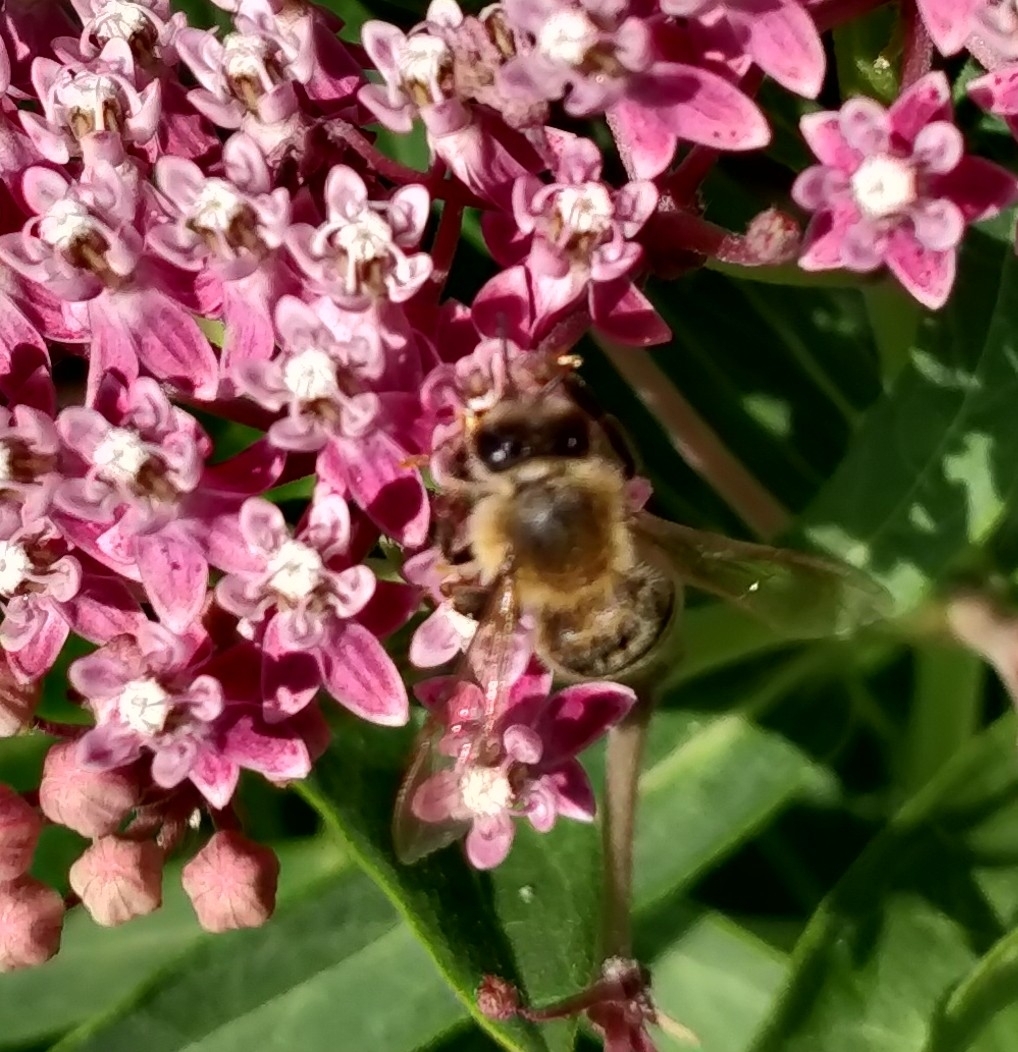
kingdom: Animalia
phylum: Arthropoda
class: Insecta
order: Hymenoptera
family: Apidae
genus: Apis
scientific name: Apis mellifera
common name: Honey bee
